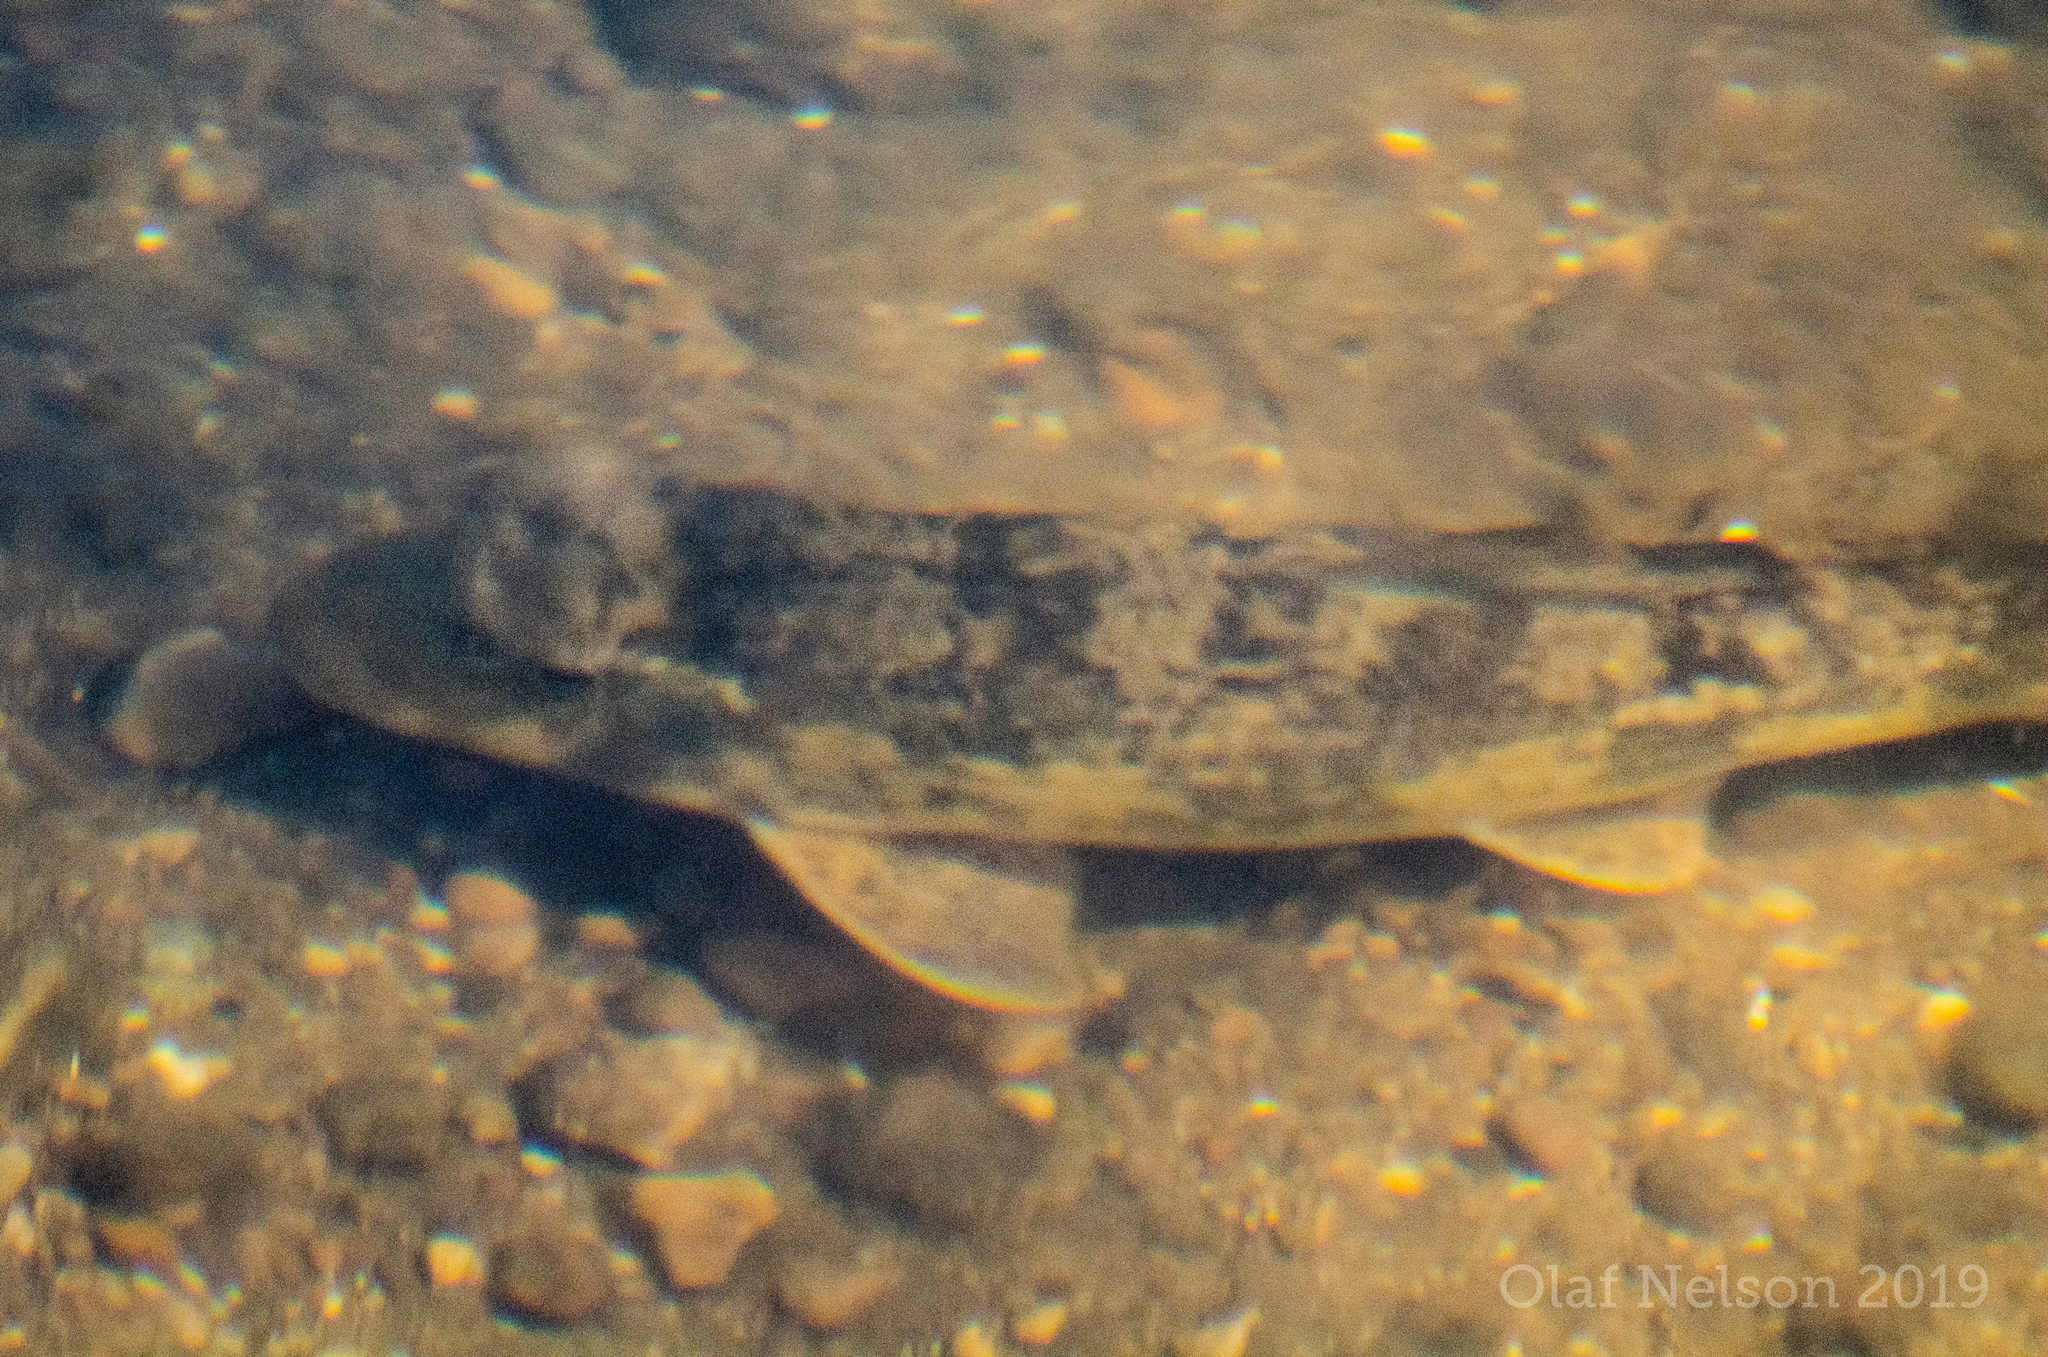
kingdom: Animalia
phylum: Chordata
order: Cypriniformes
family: Catostomidae
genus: Hypentelium
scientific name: Hypentelium nigricans
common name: Northern hog sucker
